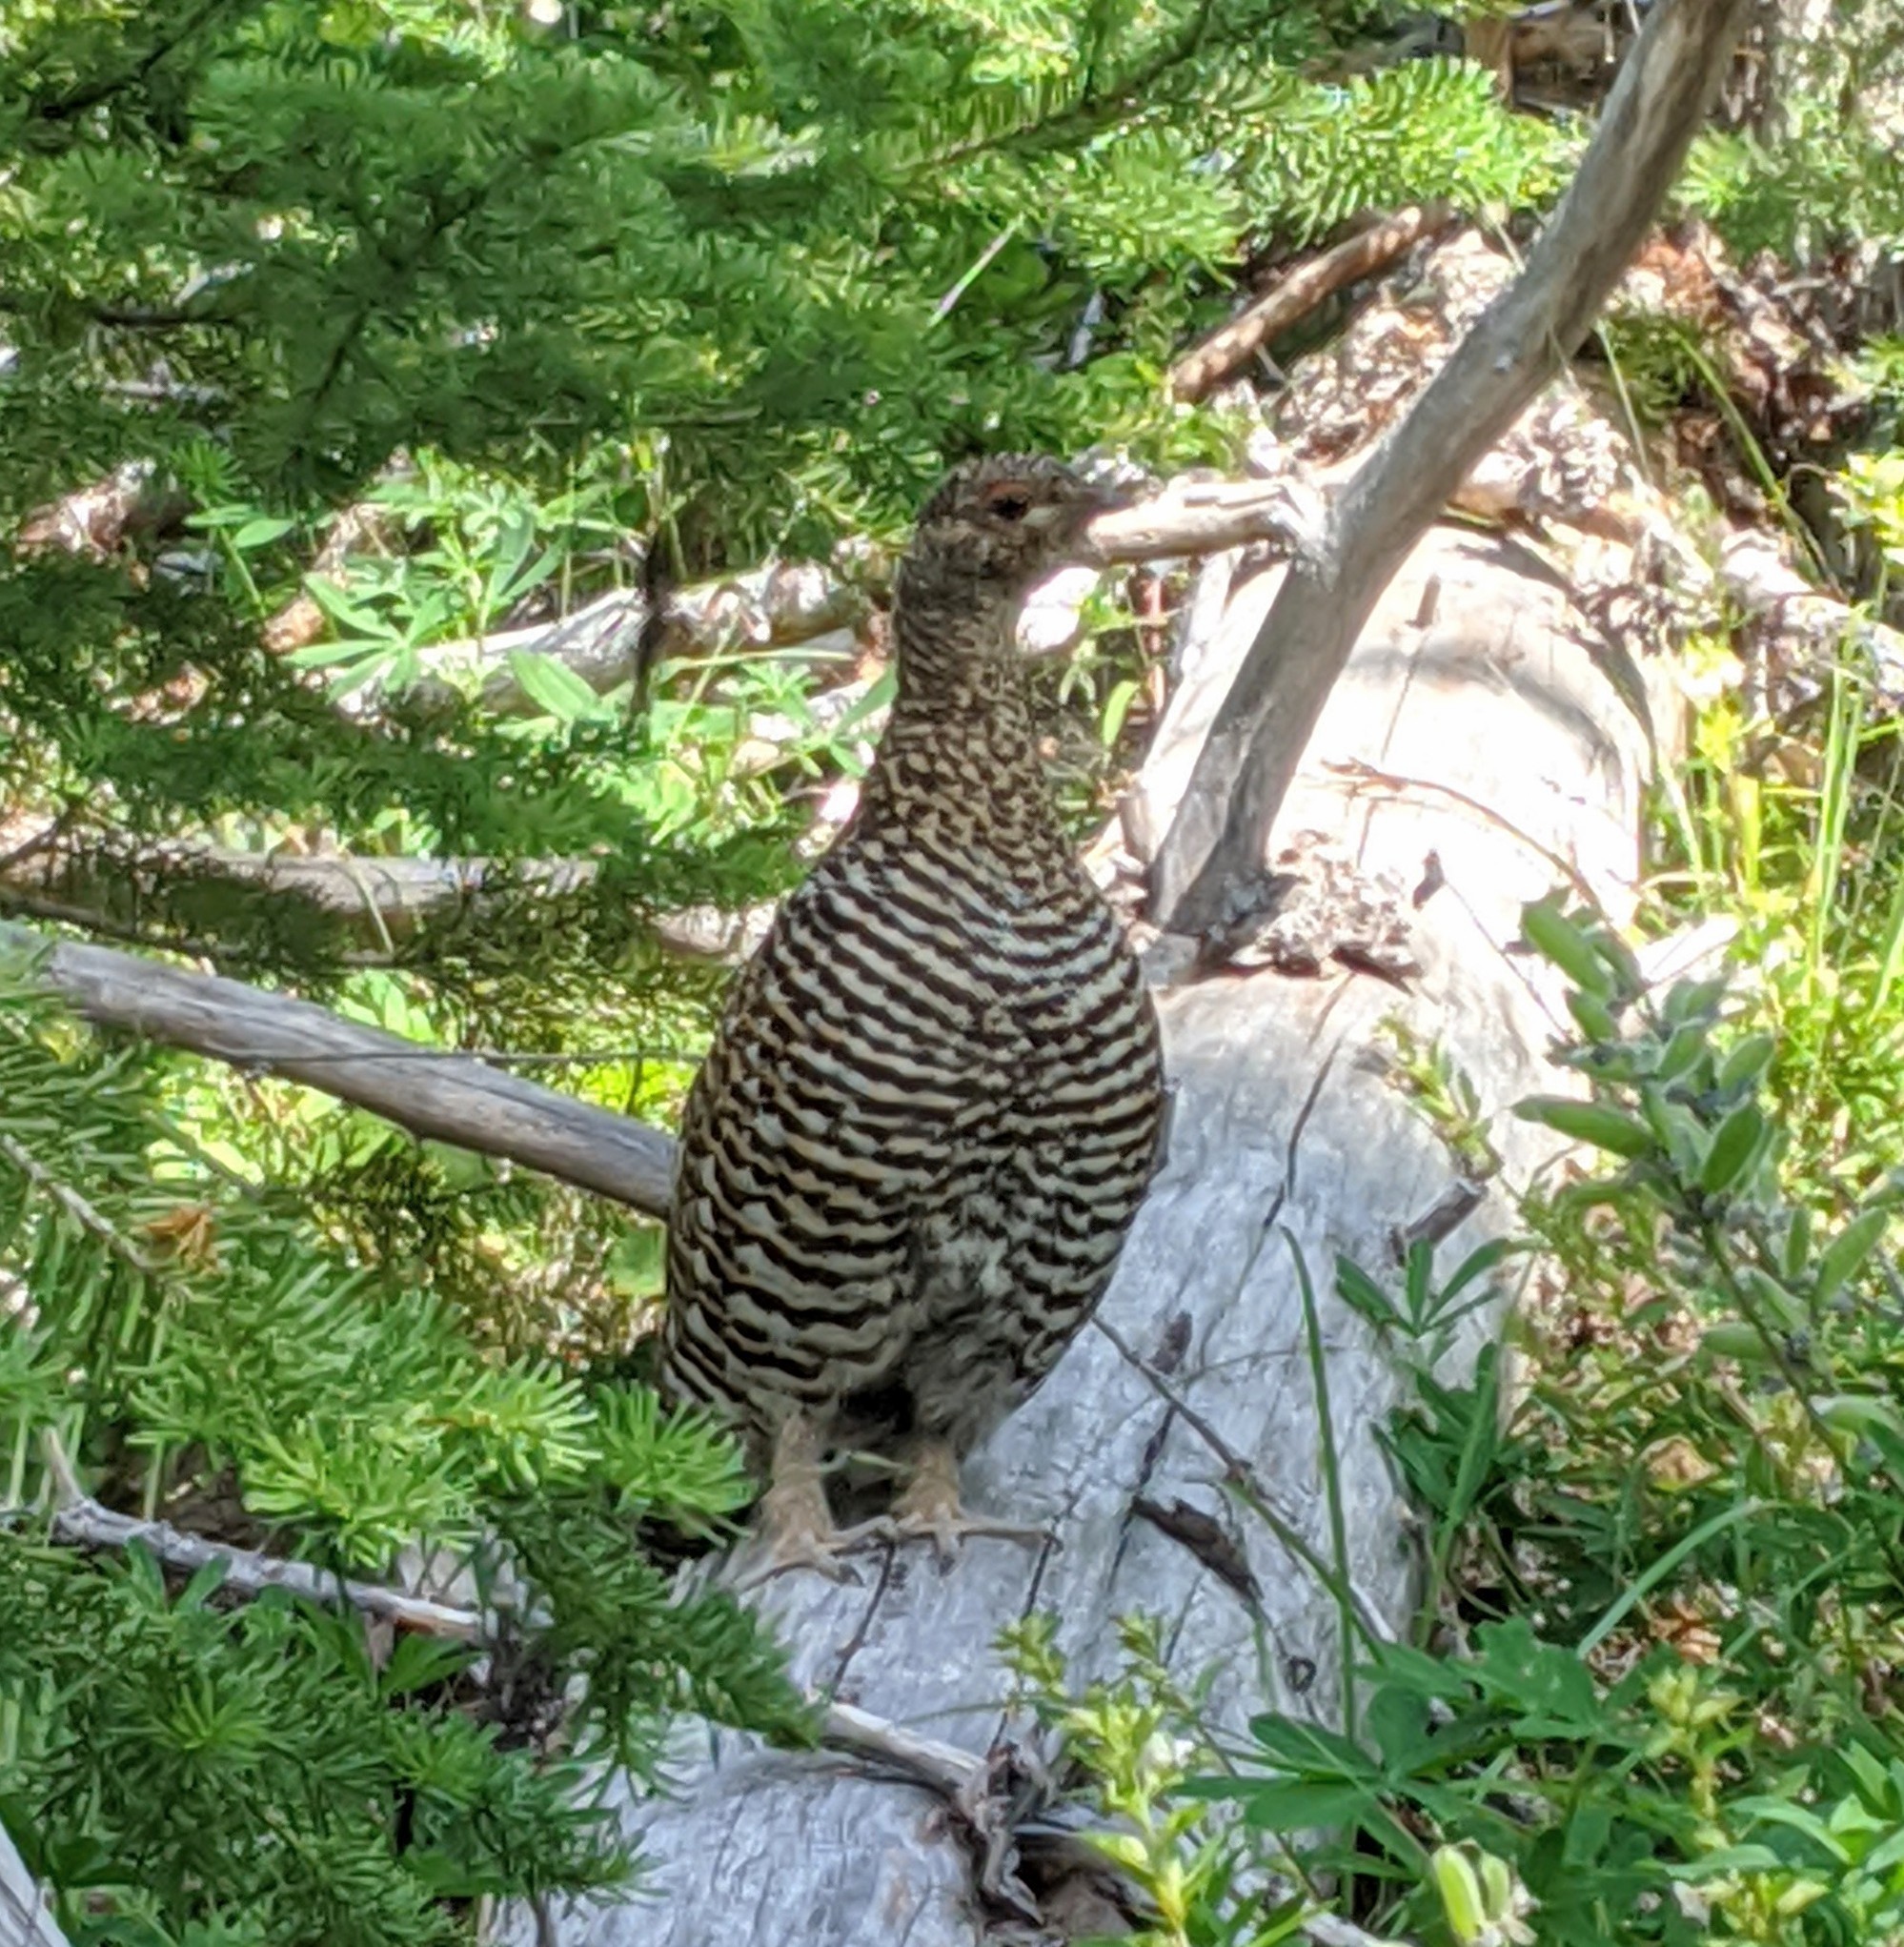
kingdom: Animalia
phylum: Chordata
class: Aves
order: Galliformes
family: Phasianidae
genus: Canachites
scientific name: Canachites canadensis
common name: Spruce grouse
